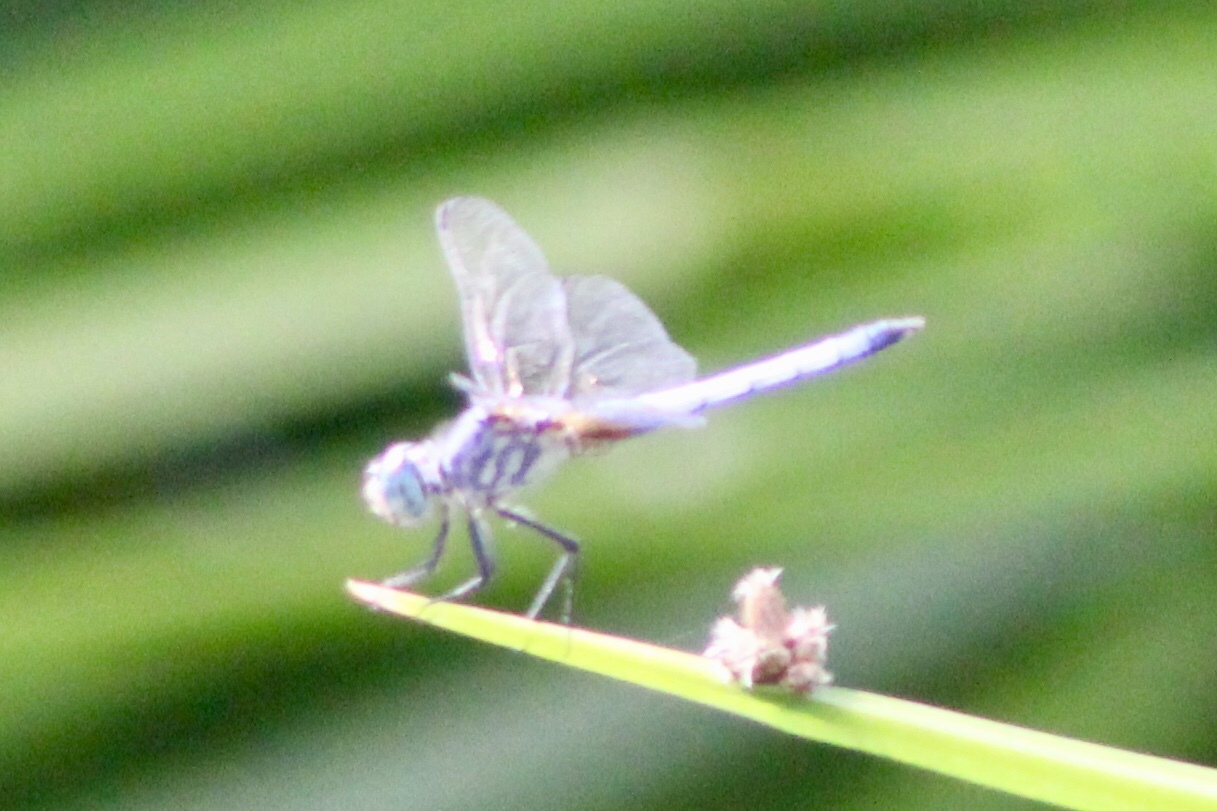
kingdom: Animalia
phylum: Arthropoda
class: Insecta
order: Odonata
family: Libellulidae
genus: Pachydiplax
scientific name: Pachydiplax longipennis
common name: Blue dasher
